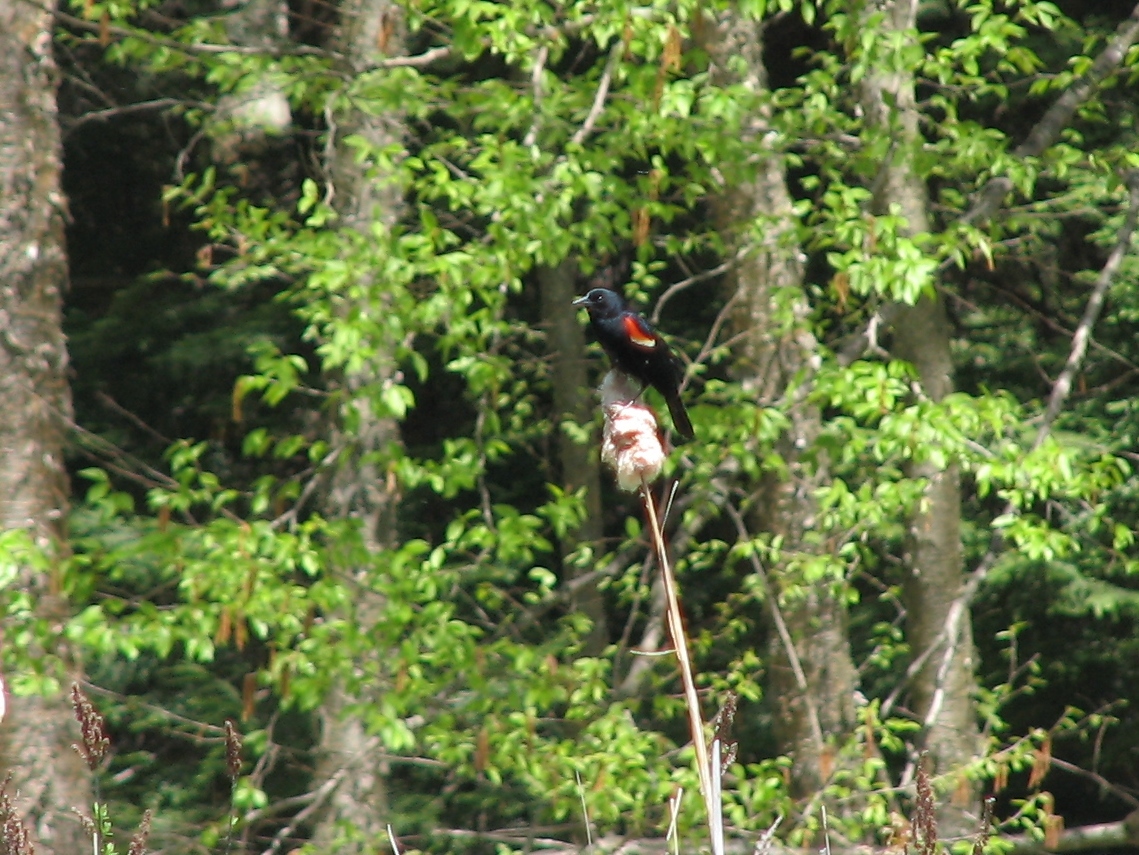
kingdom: Animalia
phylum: Chordata
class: Aves
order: Passeriformes
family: Icteridae
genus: Agelaius
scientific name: Agelaius phoeniceus
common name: Red-winged blackbird
